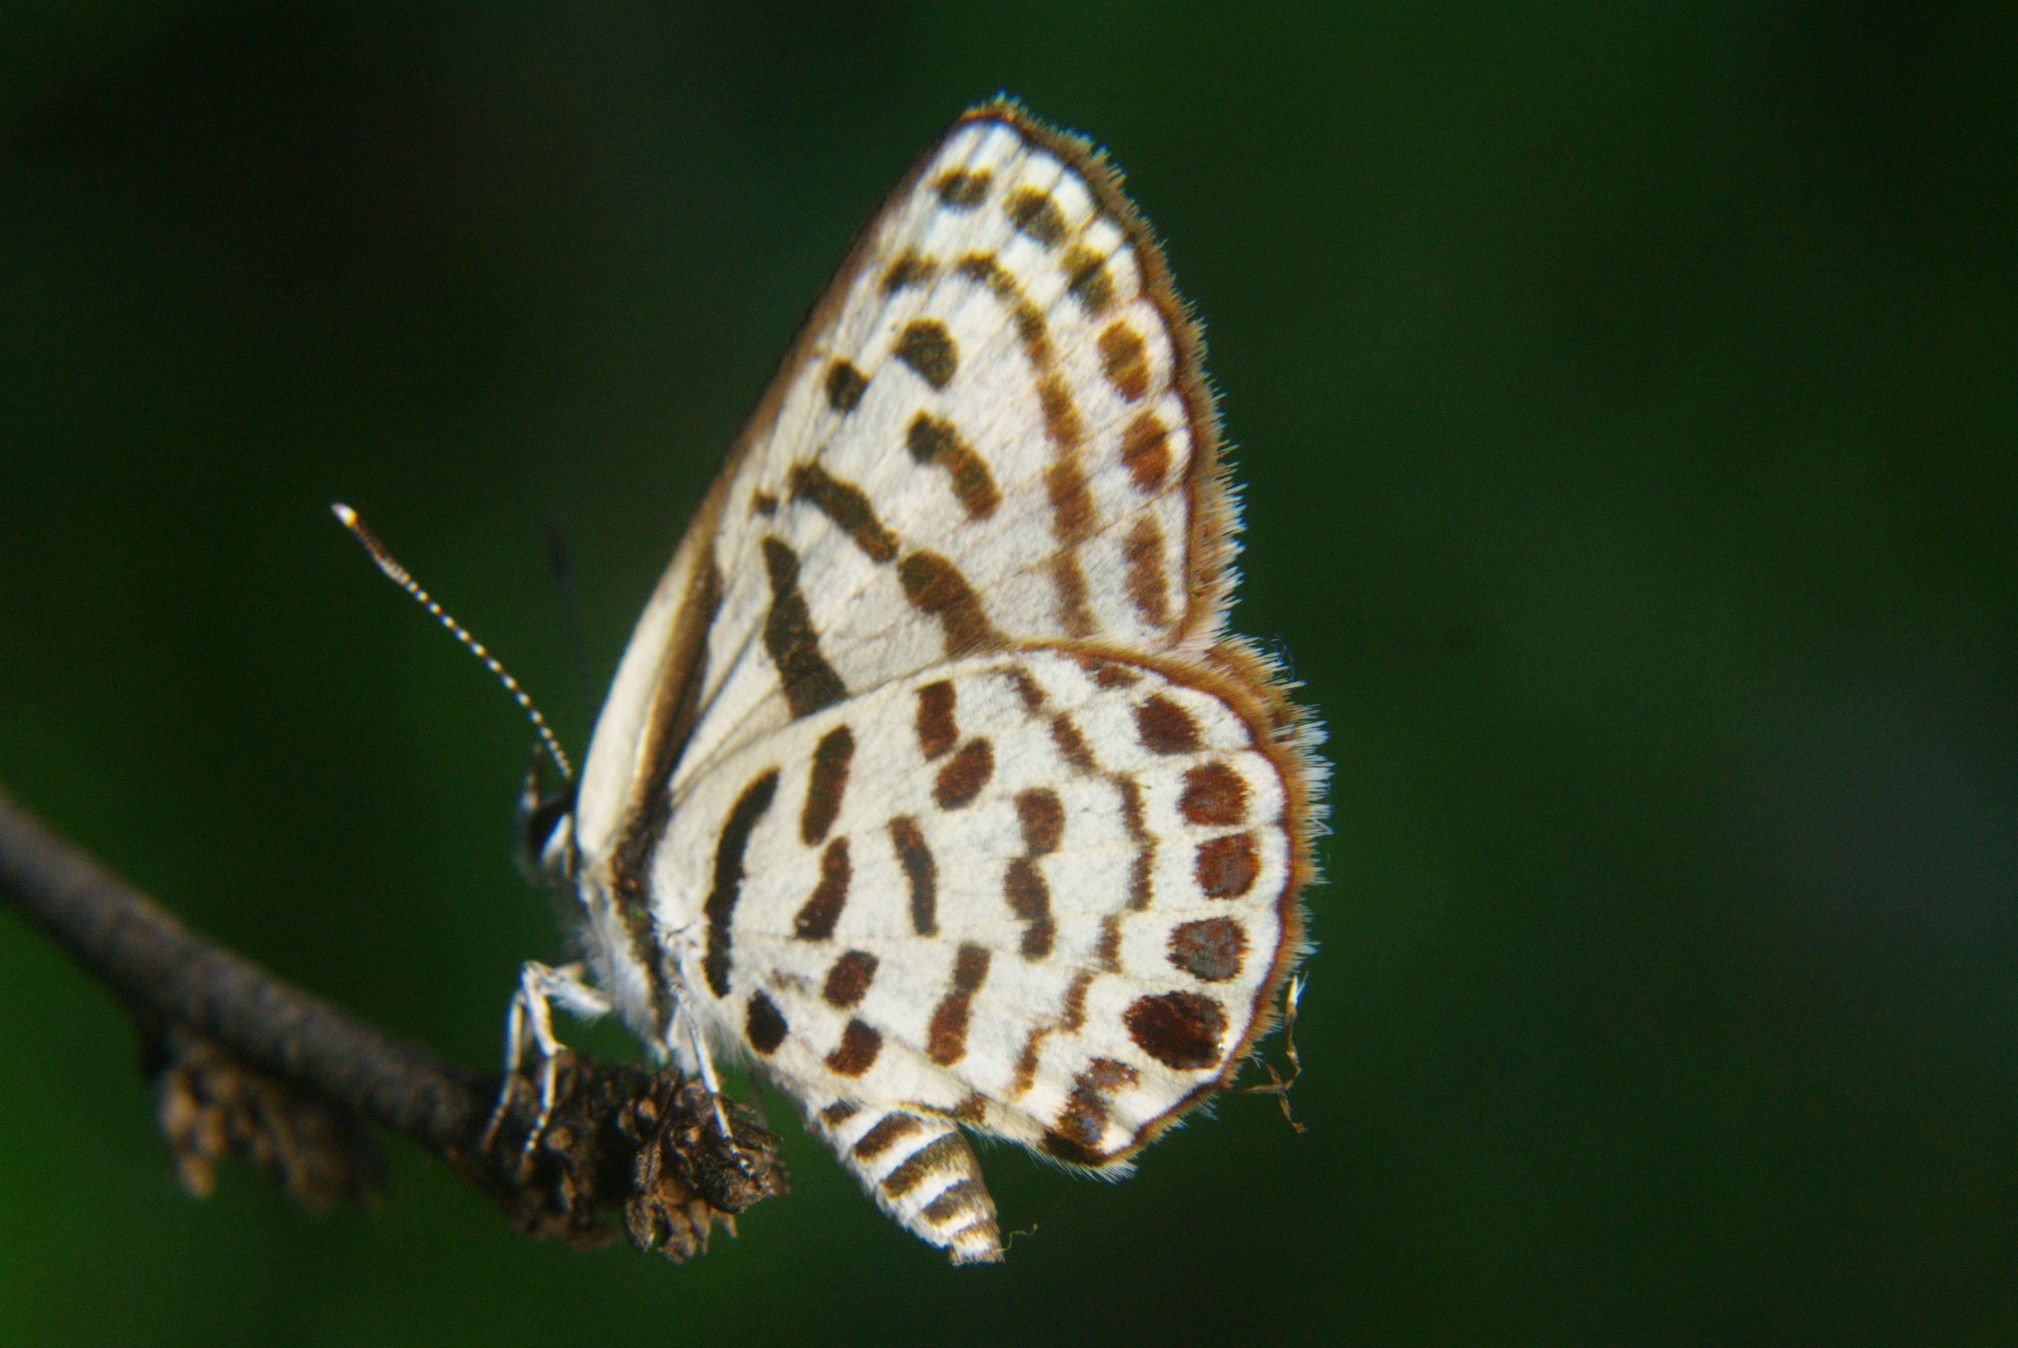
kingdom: Animalia
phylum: Arthropoda
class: Insecta
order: Lepidoptera
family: Lycaenidae
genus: Tarucus
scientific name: Tarucus nara
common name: Striped pierrot
